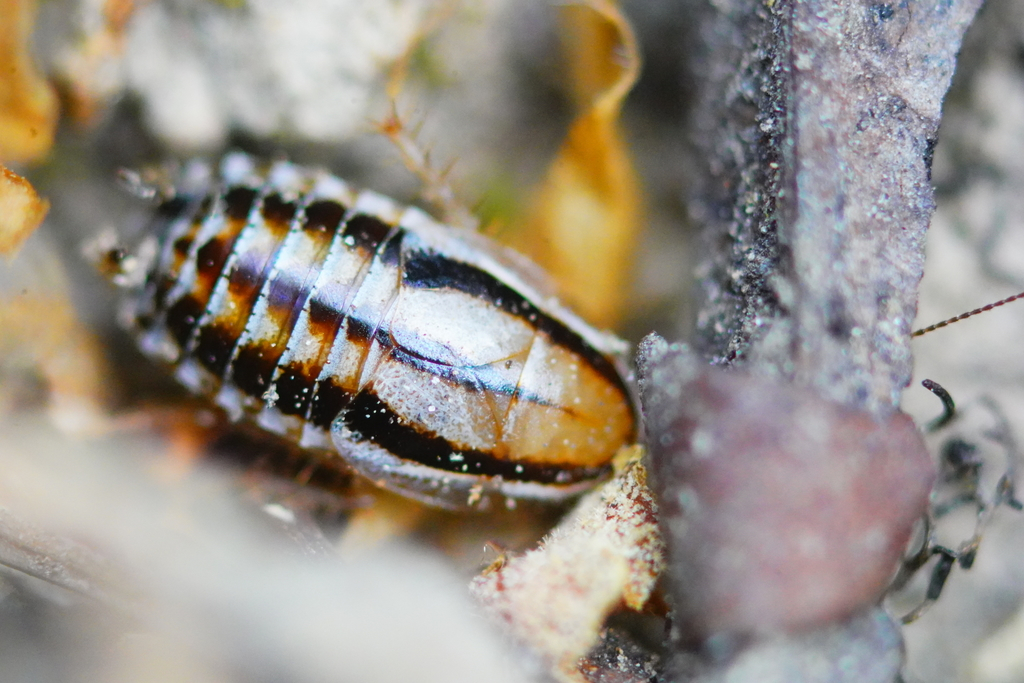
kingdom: Animalia
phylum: Arthropoda
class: Insecta
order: Blattodea
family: Ectobiidae
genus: Luridiblatta
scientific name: Luridiblatta trivittata
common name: Three-lined cockroach
